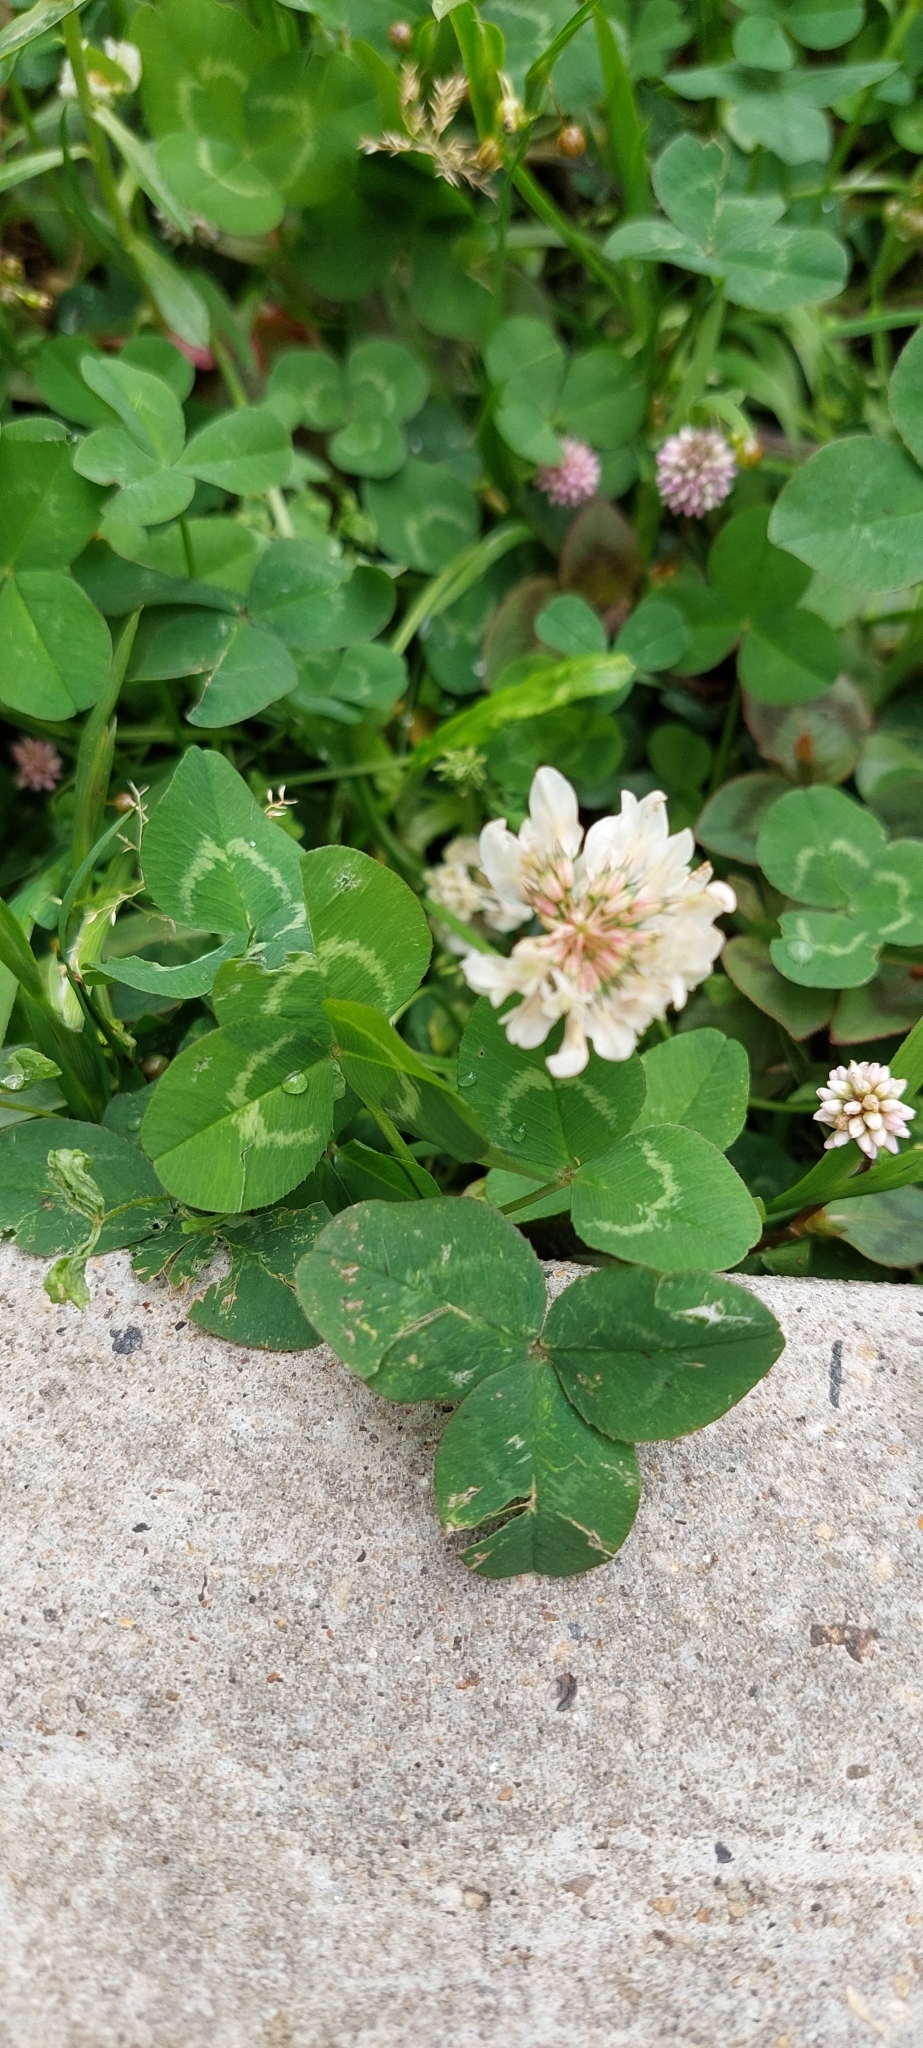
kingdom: Plantae
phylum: Tracheophyta
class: Magnoliopsida
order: Fabales
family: Fabaceae
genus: Trifolium
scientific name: Trifolium repens
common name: White clover
